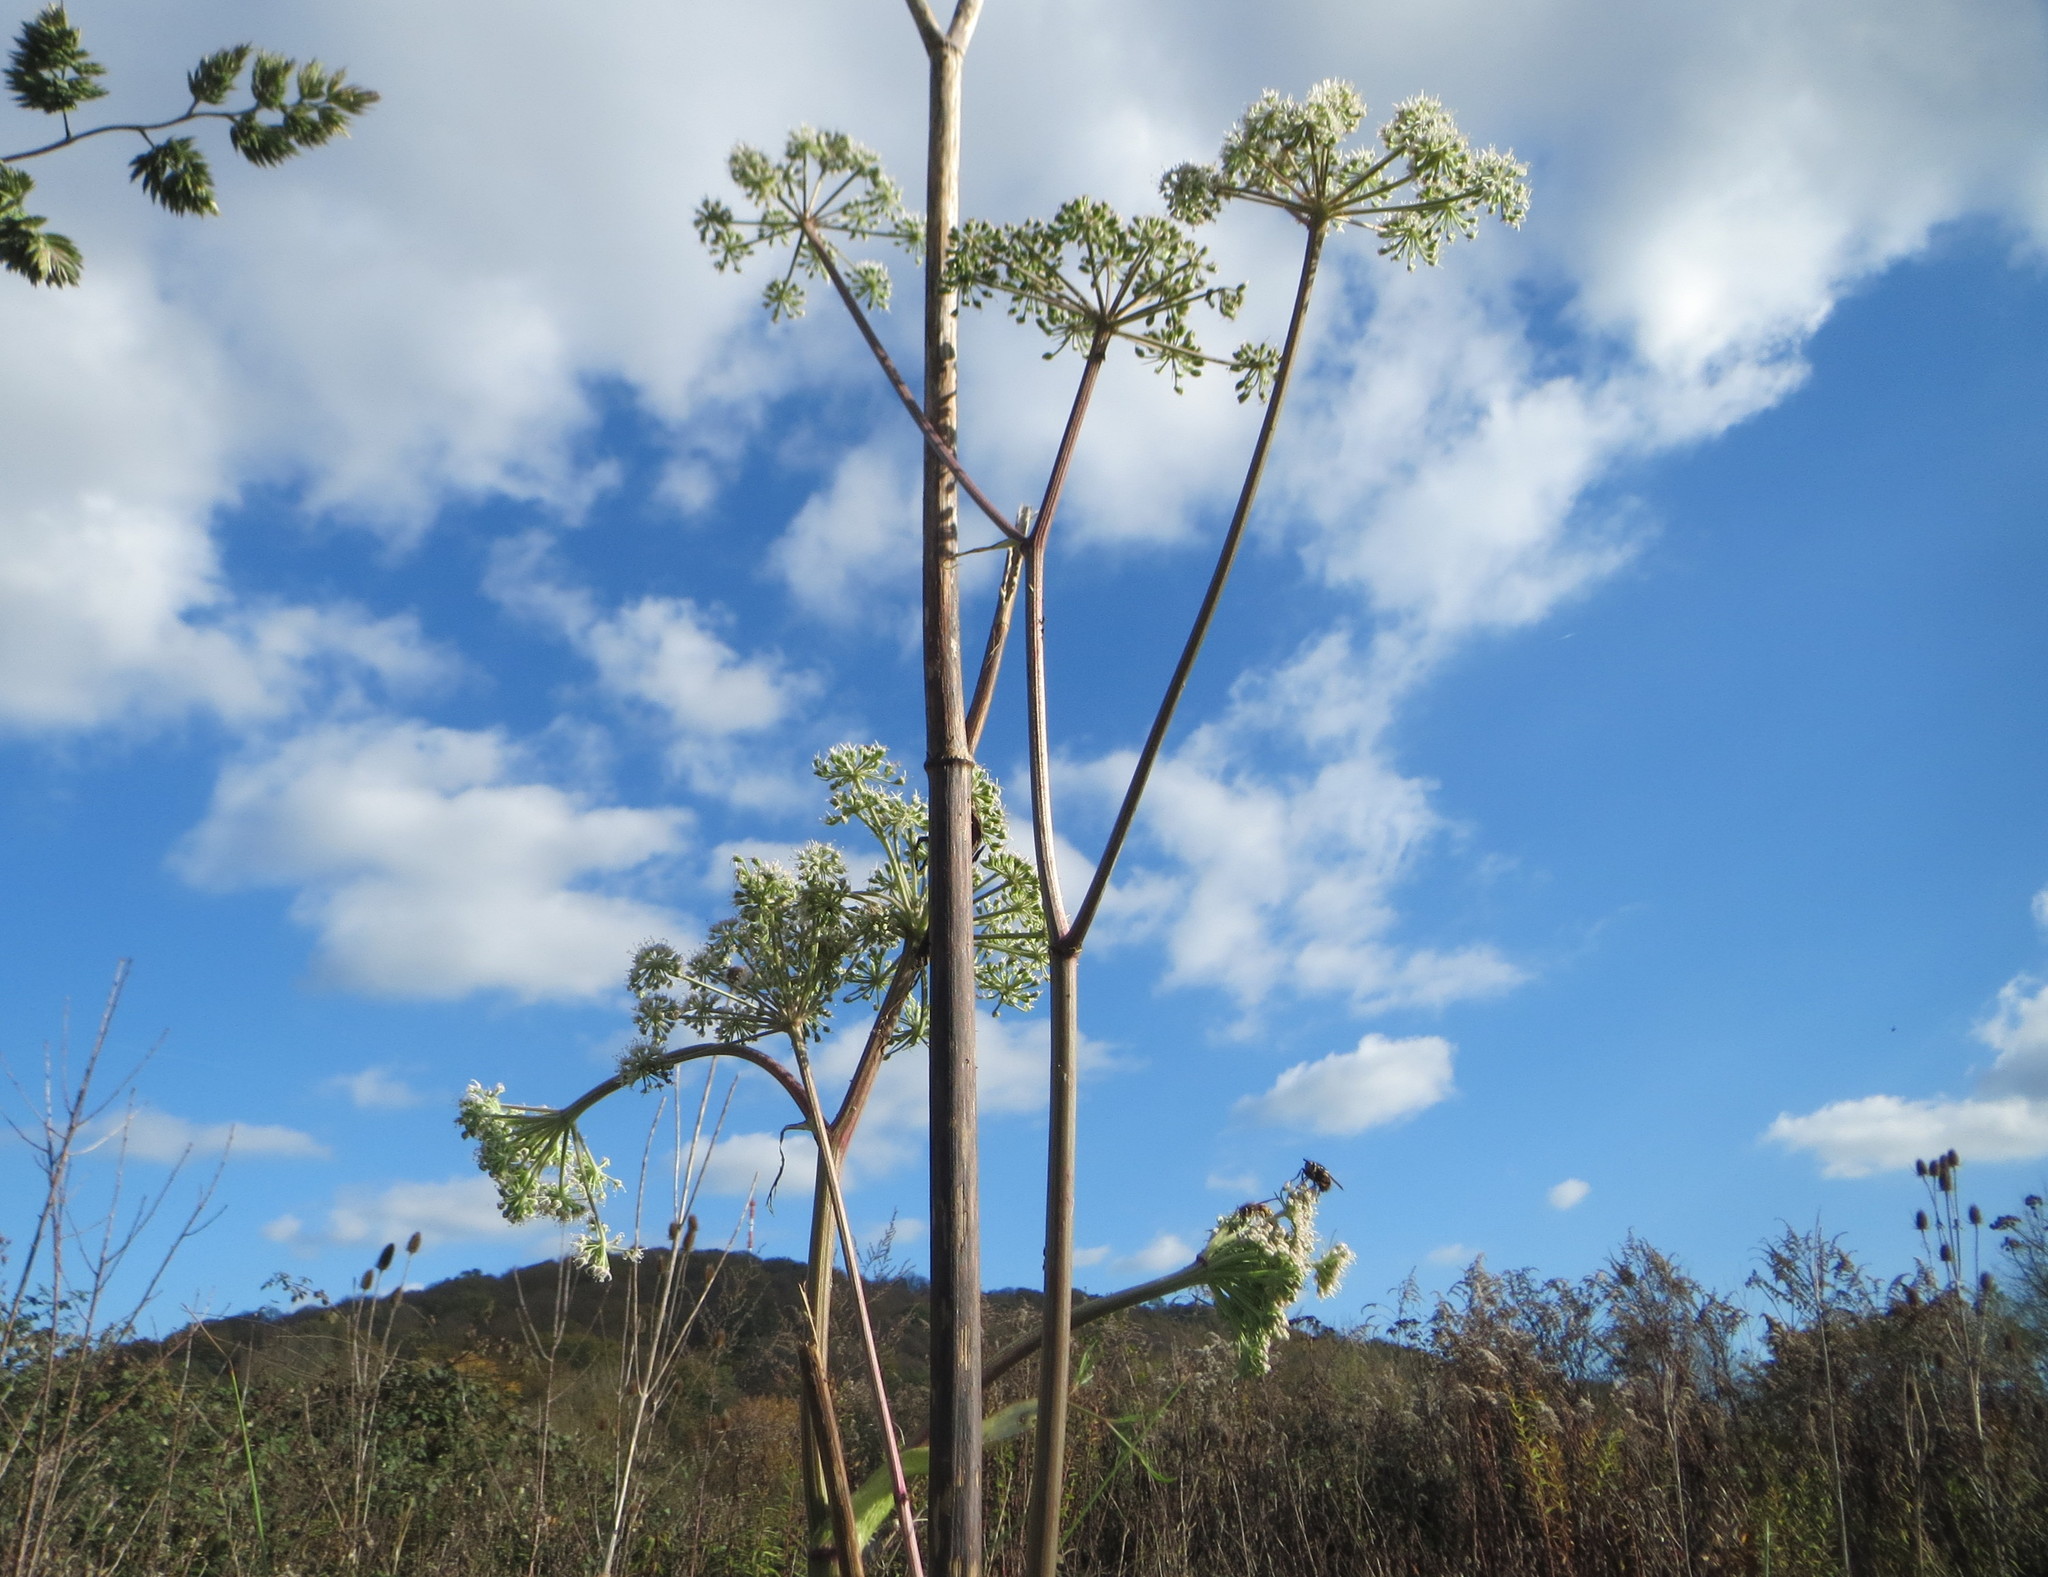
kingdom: Plantae
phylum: Tracheophyta
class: Magnoliopsida
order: Apiales
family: Apiaceae
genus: Angelica
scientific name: Angelica sylvestris
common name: Wild angelica
